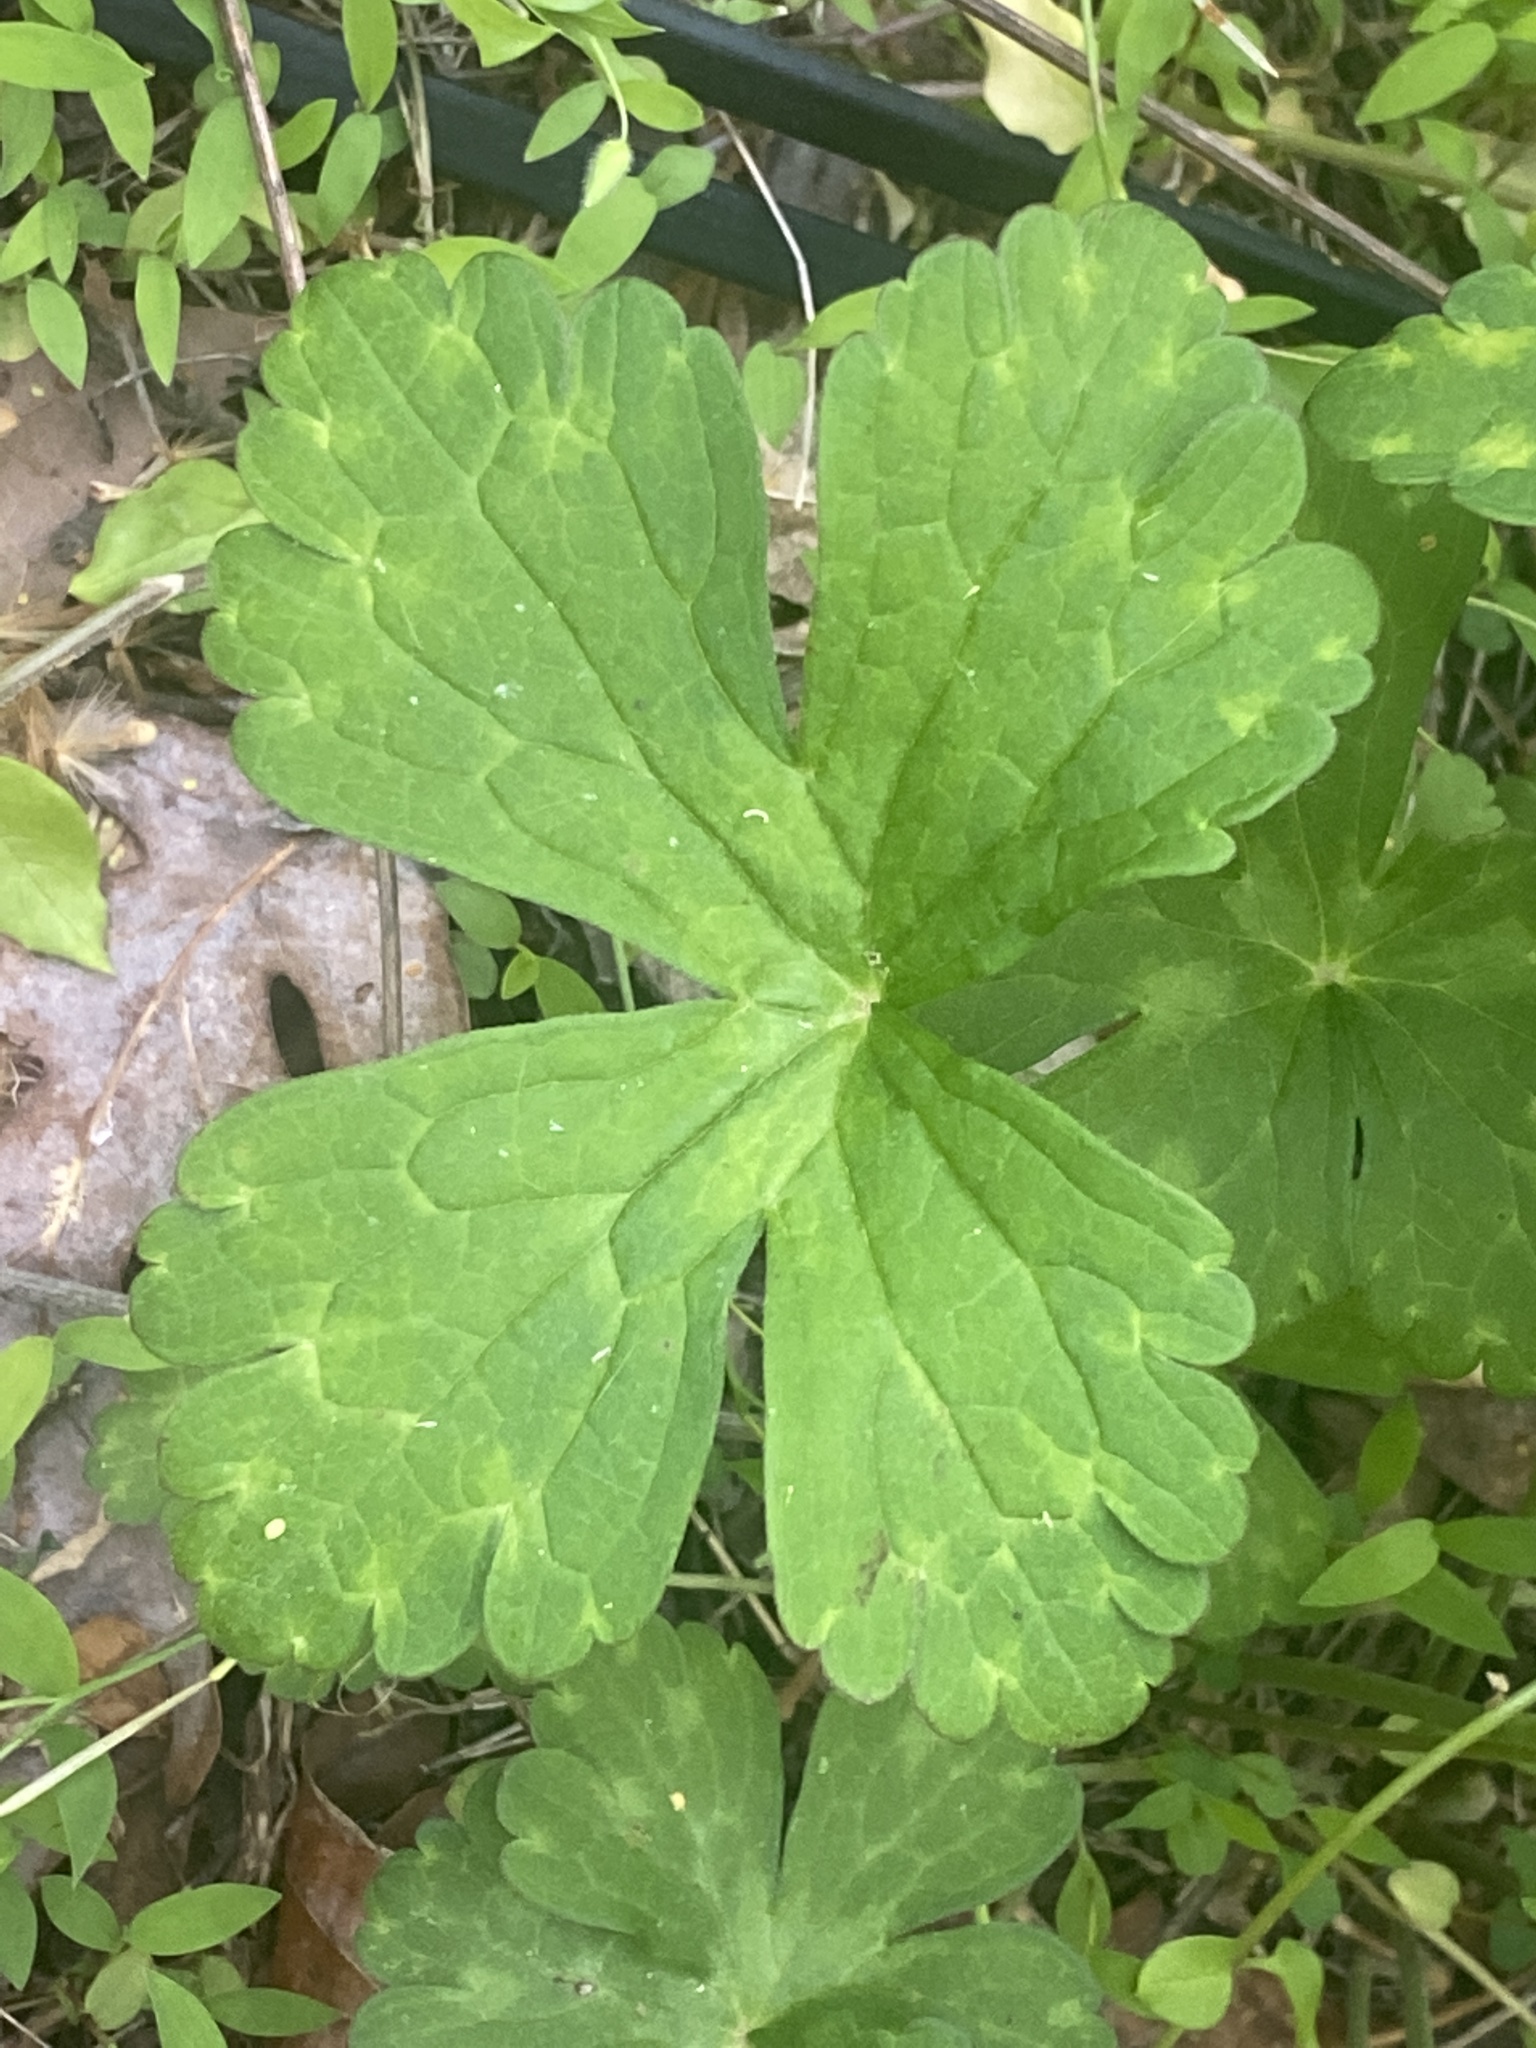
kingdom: Plantae
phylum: Tracheophyta
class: Magnoliopsida
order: Geraniales
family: Geraniaceae
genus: Geranium
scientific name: Geranium maculatum
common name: Spotted geranium
